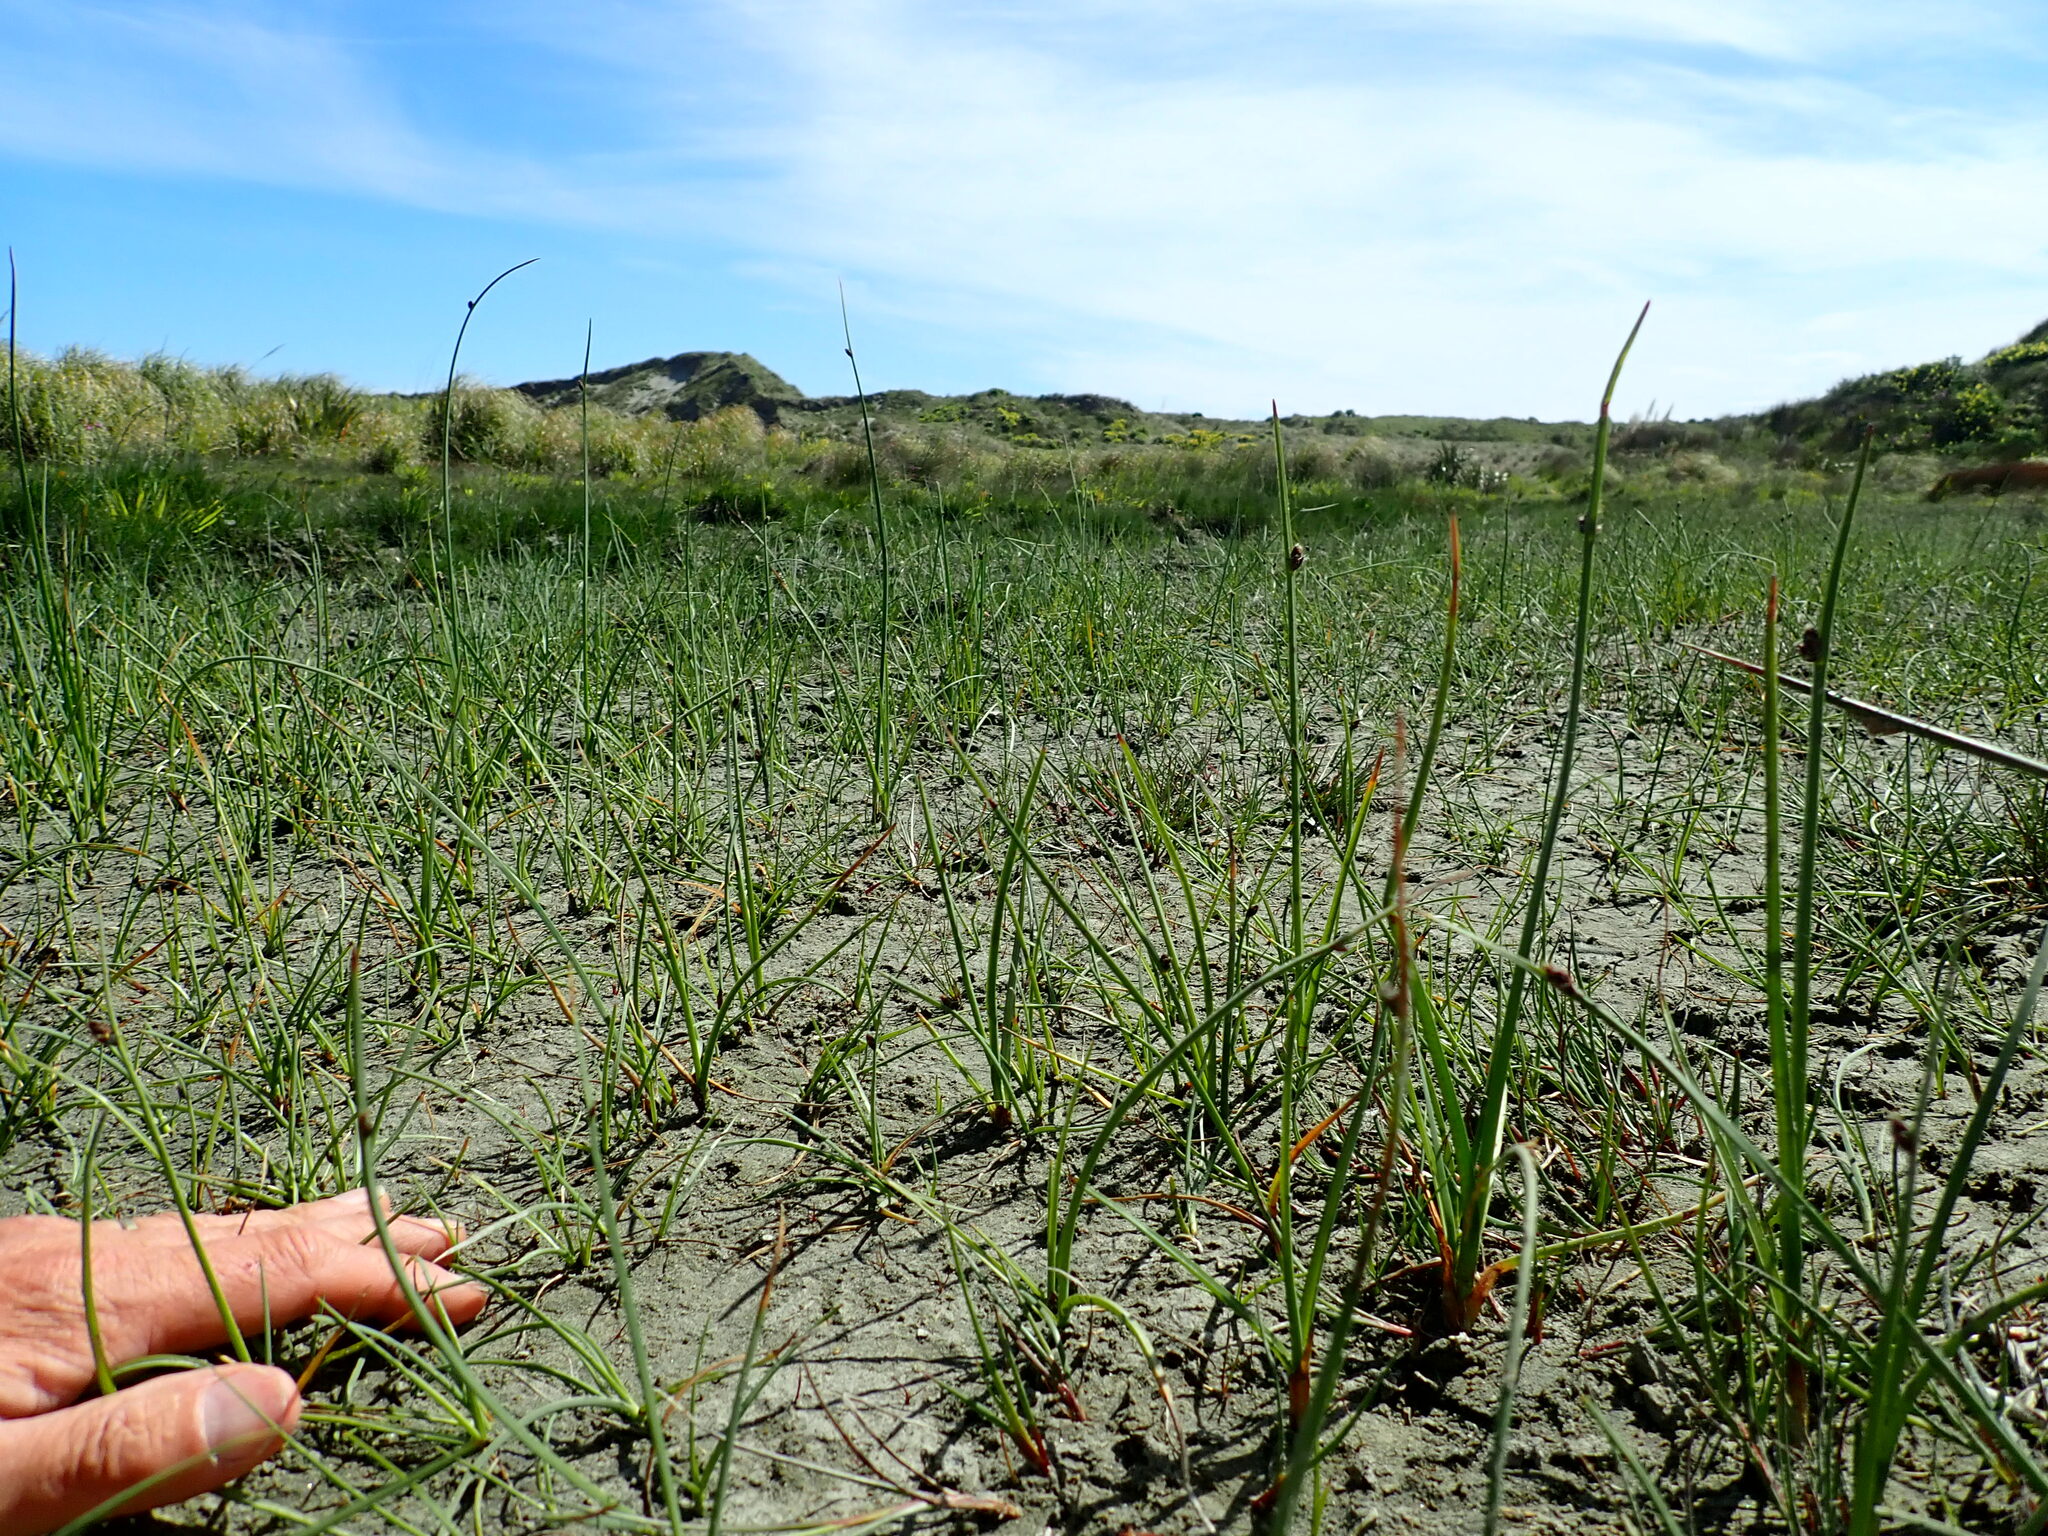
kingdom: Plantae
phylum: Tracheophyta
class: Liliopsida
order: Poales
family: Cyperaceae
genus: Schoenoplectus
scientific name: Schoenoplectus pungens
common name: Sharp club-rush
